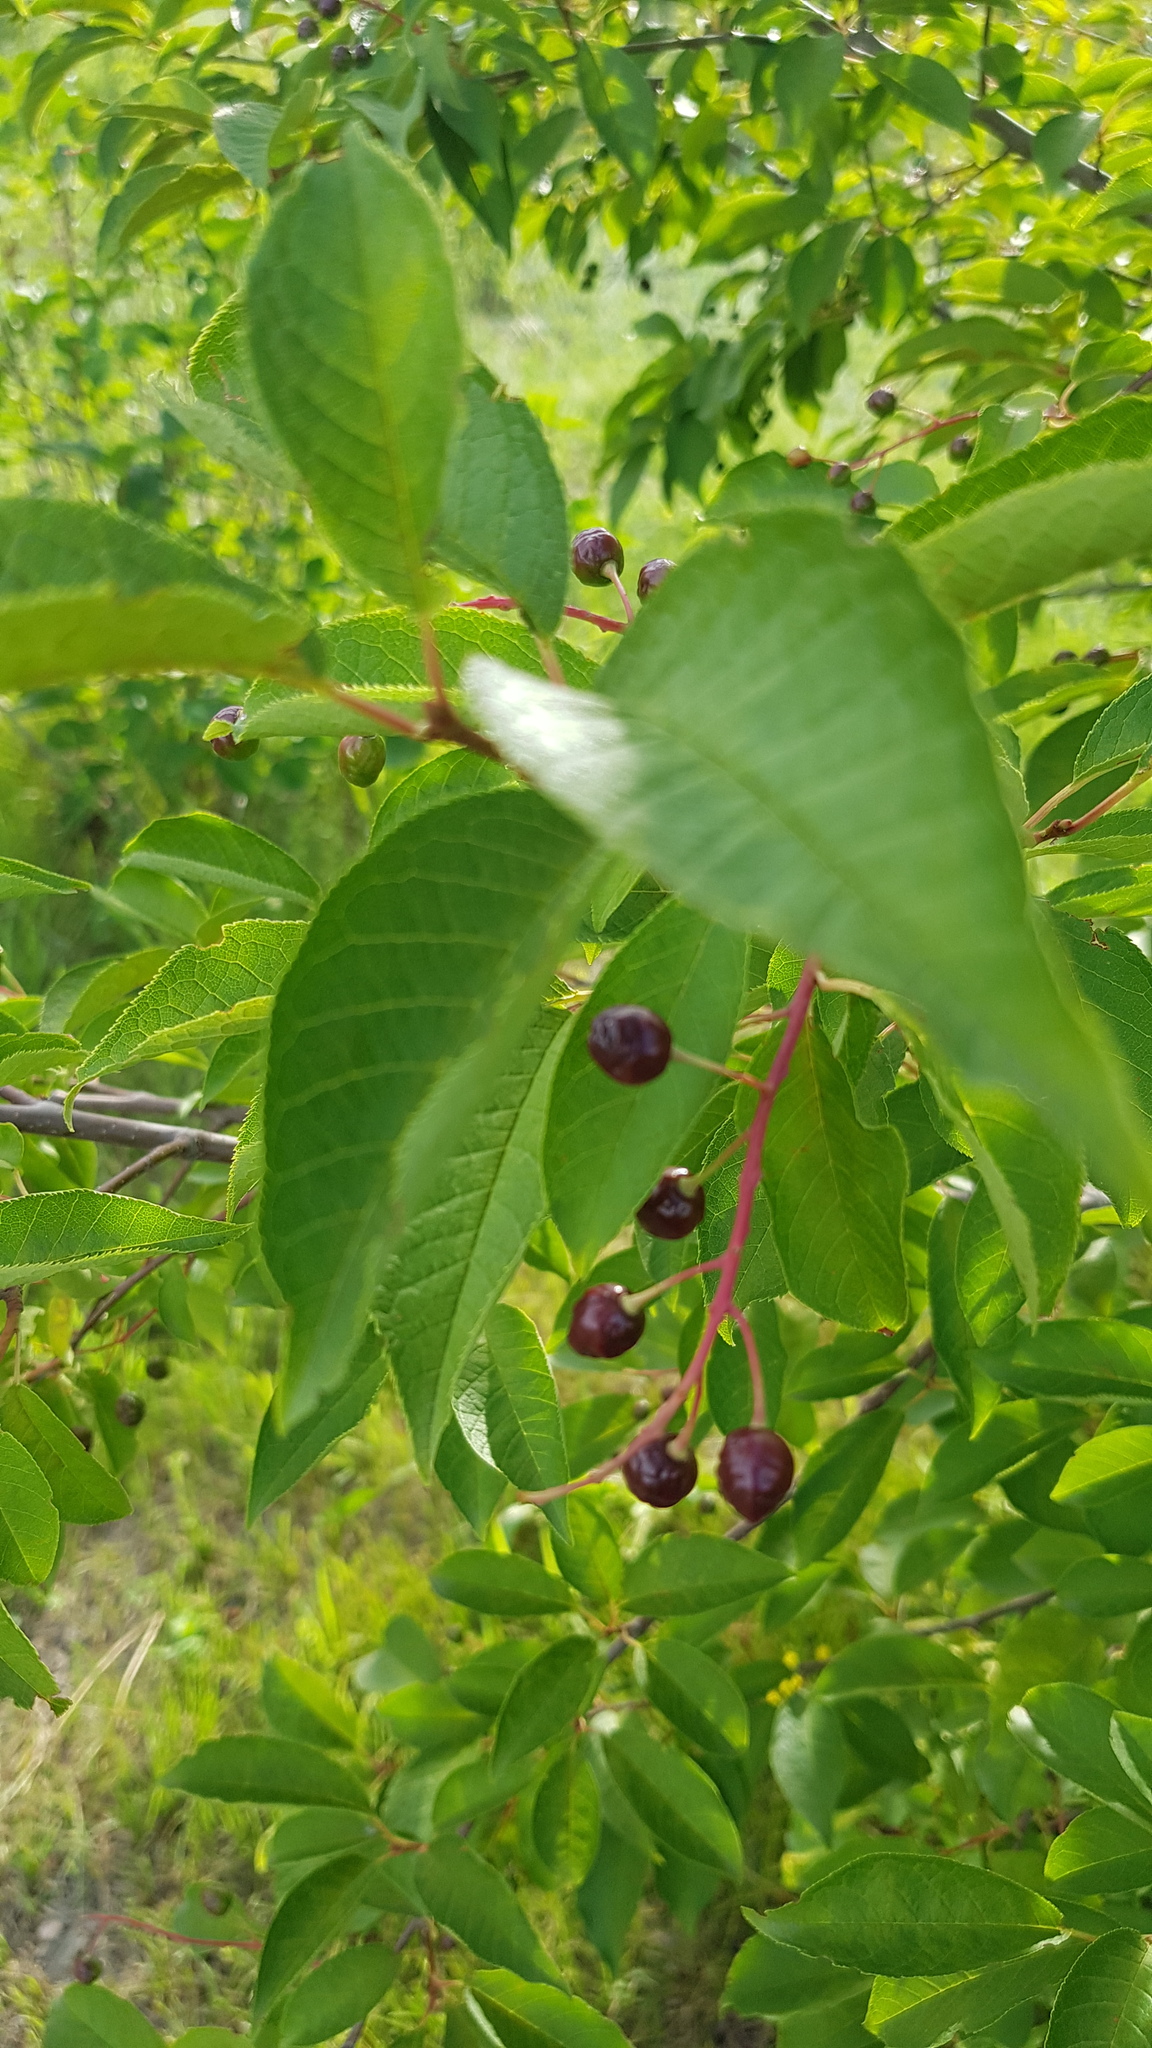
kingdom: Plantae
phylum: Tracheophyta
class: Magnoliopsida
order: Rosales
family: Rosaceae
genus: Prunus
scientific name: Prunus padus
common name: Bird cherry
